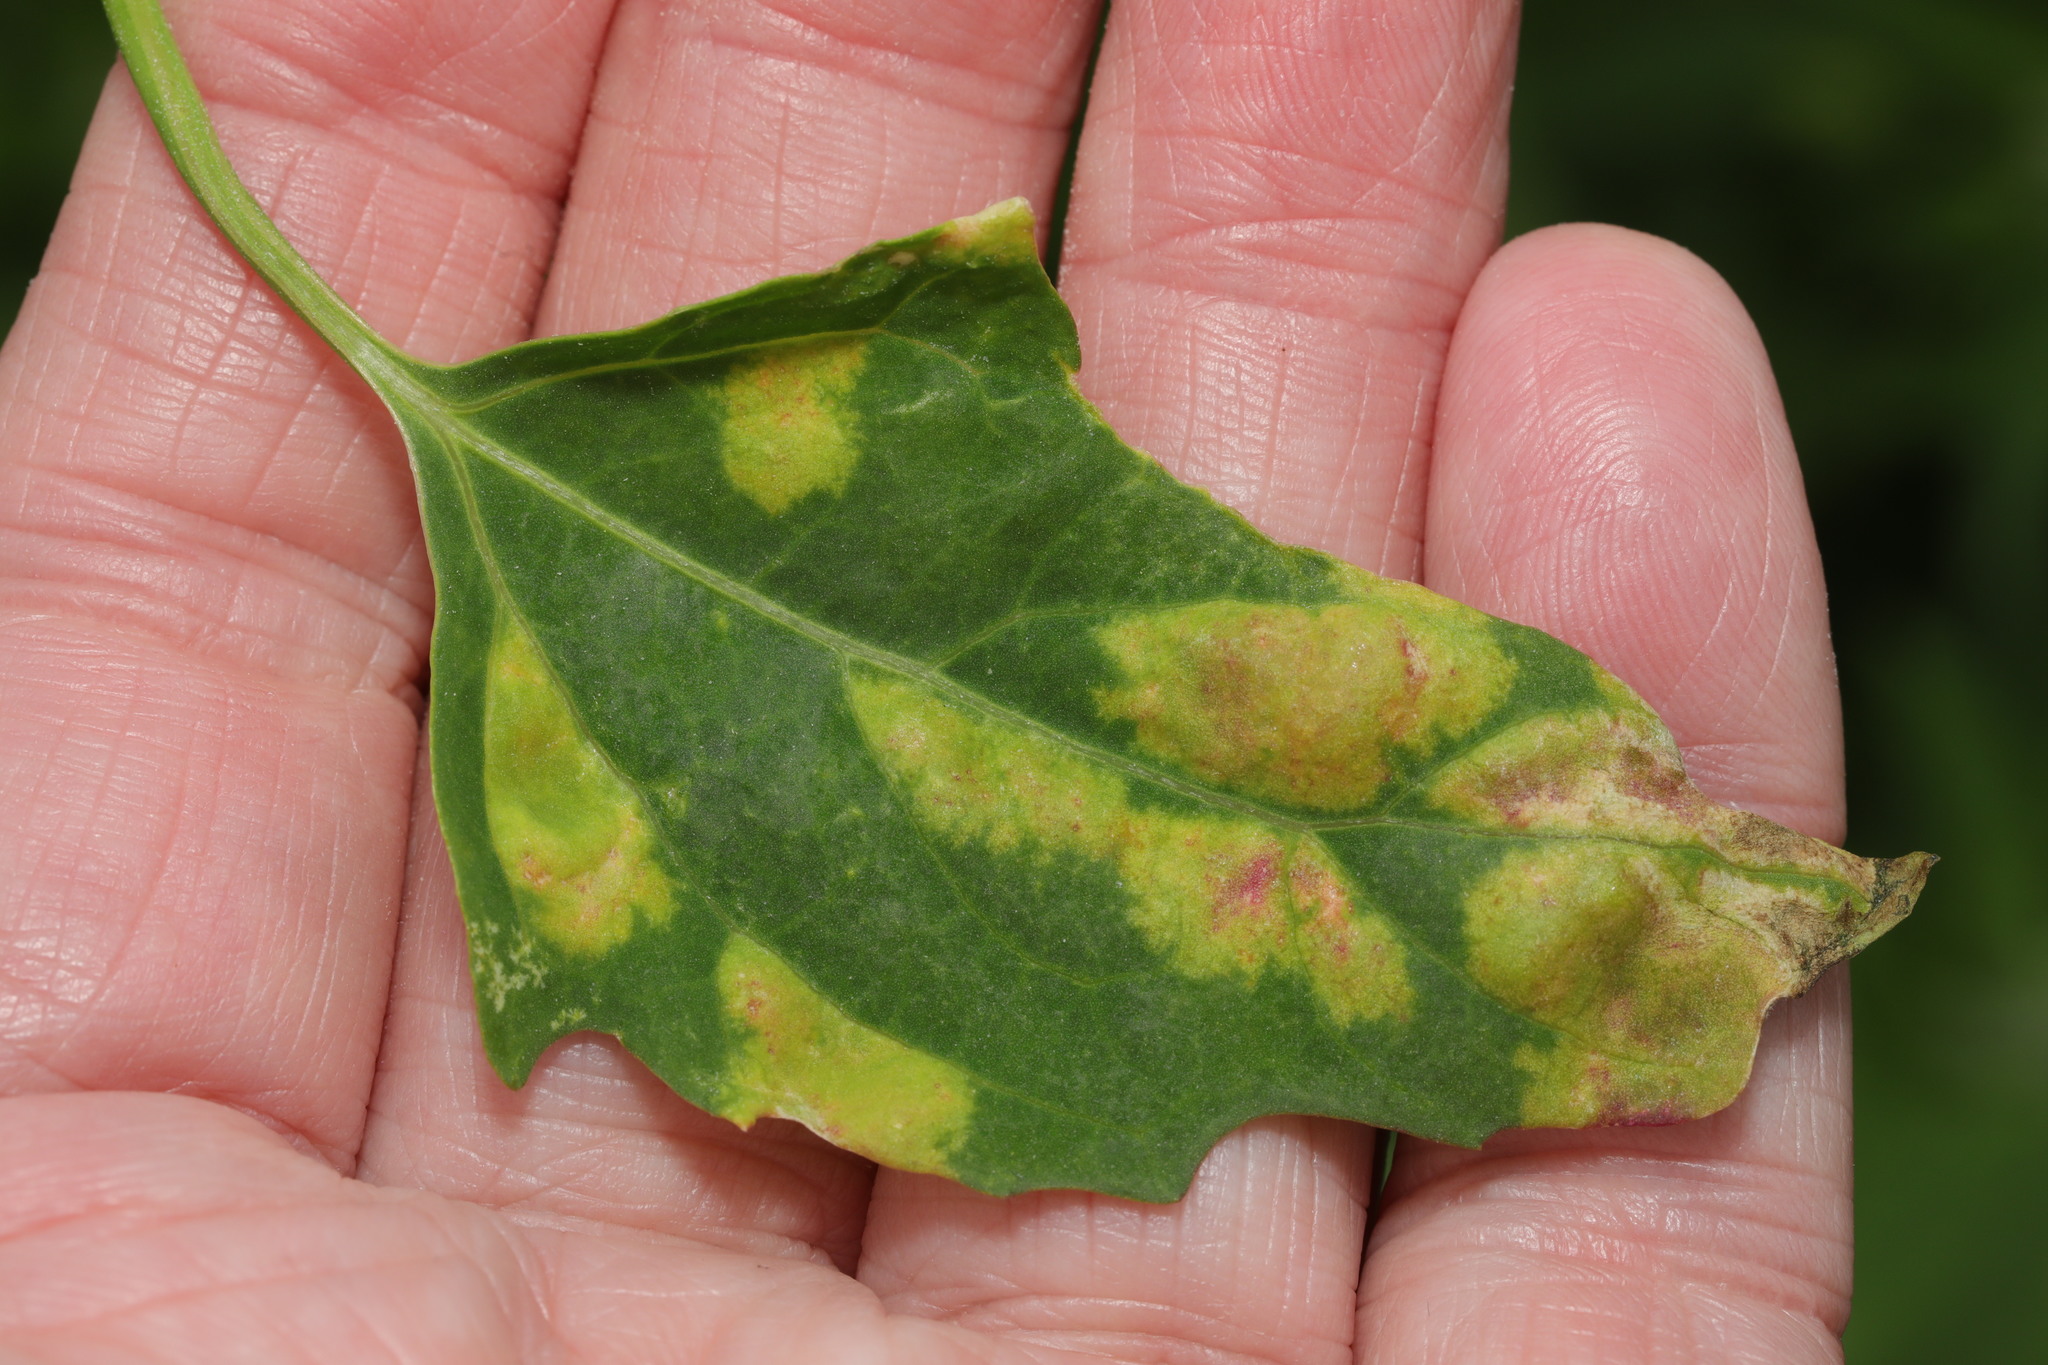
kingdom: Chromista
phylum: Oomycota
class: Peronosporea
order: Peronosporales
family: Peronosporaceae
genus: Peronospora
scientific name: Peronospora farinosa
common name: Beet downy mildew
